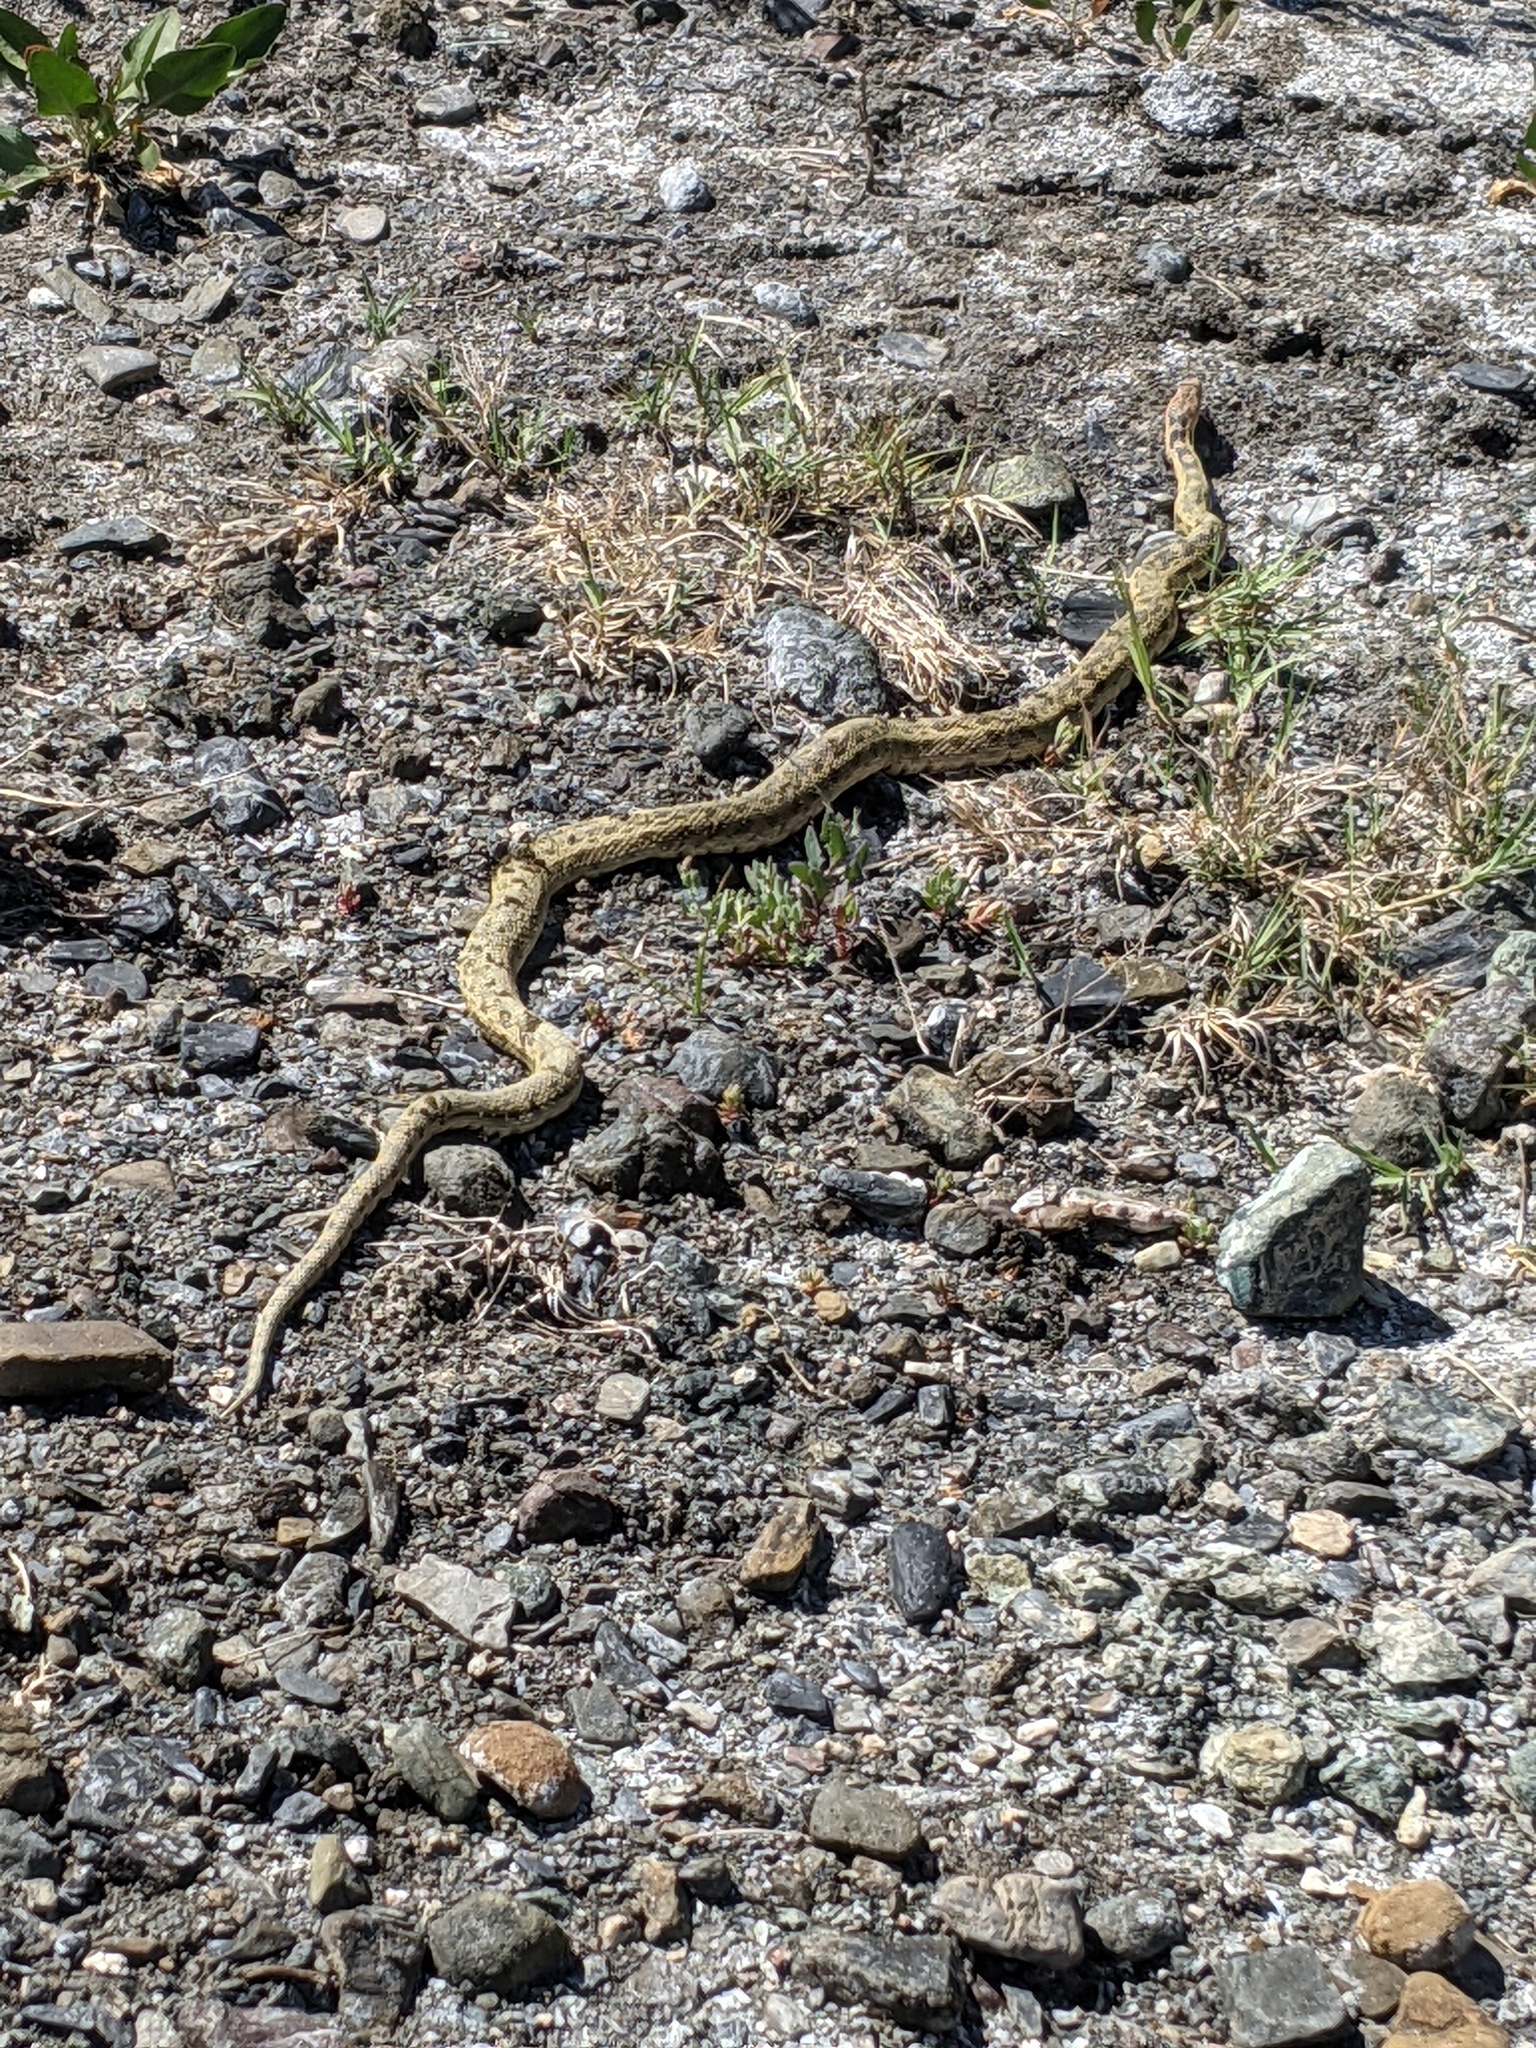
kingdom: Animalia
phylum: Chordata
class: Squamata
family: Colubridae
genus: Pituophis
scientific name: Pituophis catenifer
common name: Gopher snake
